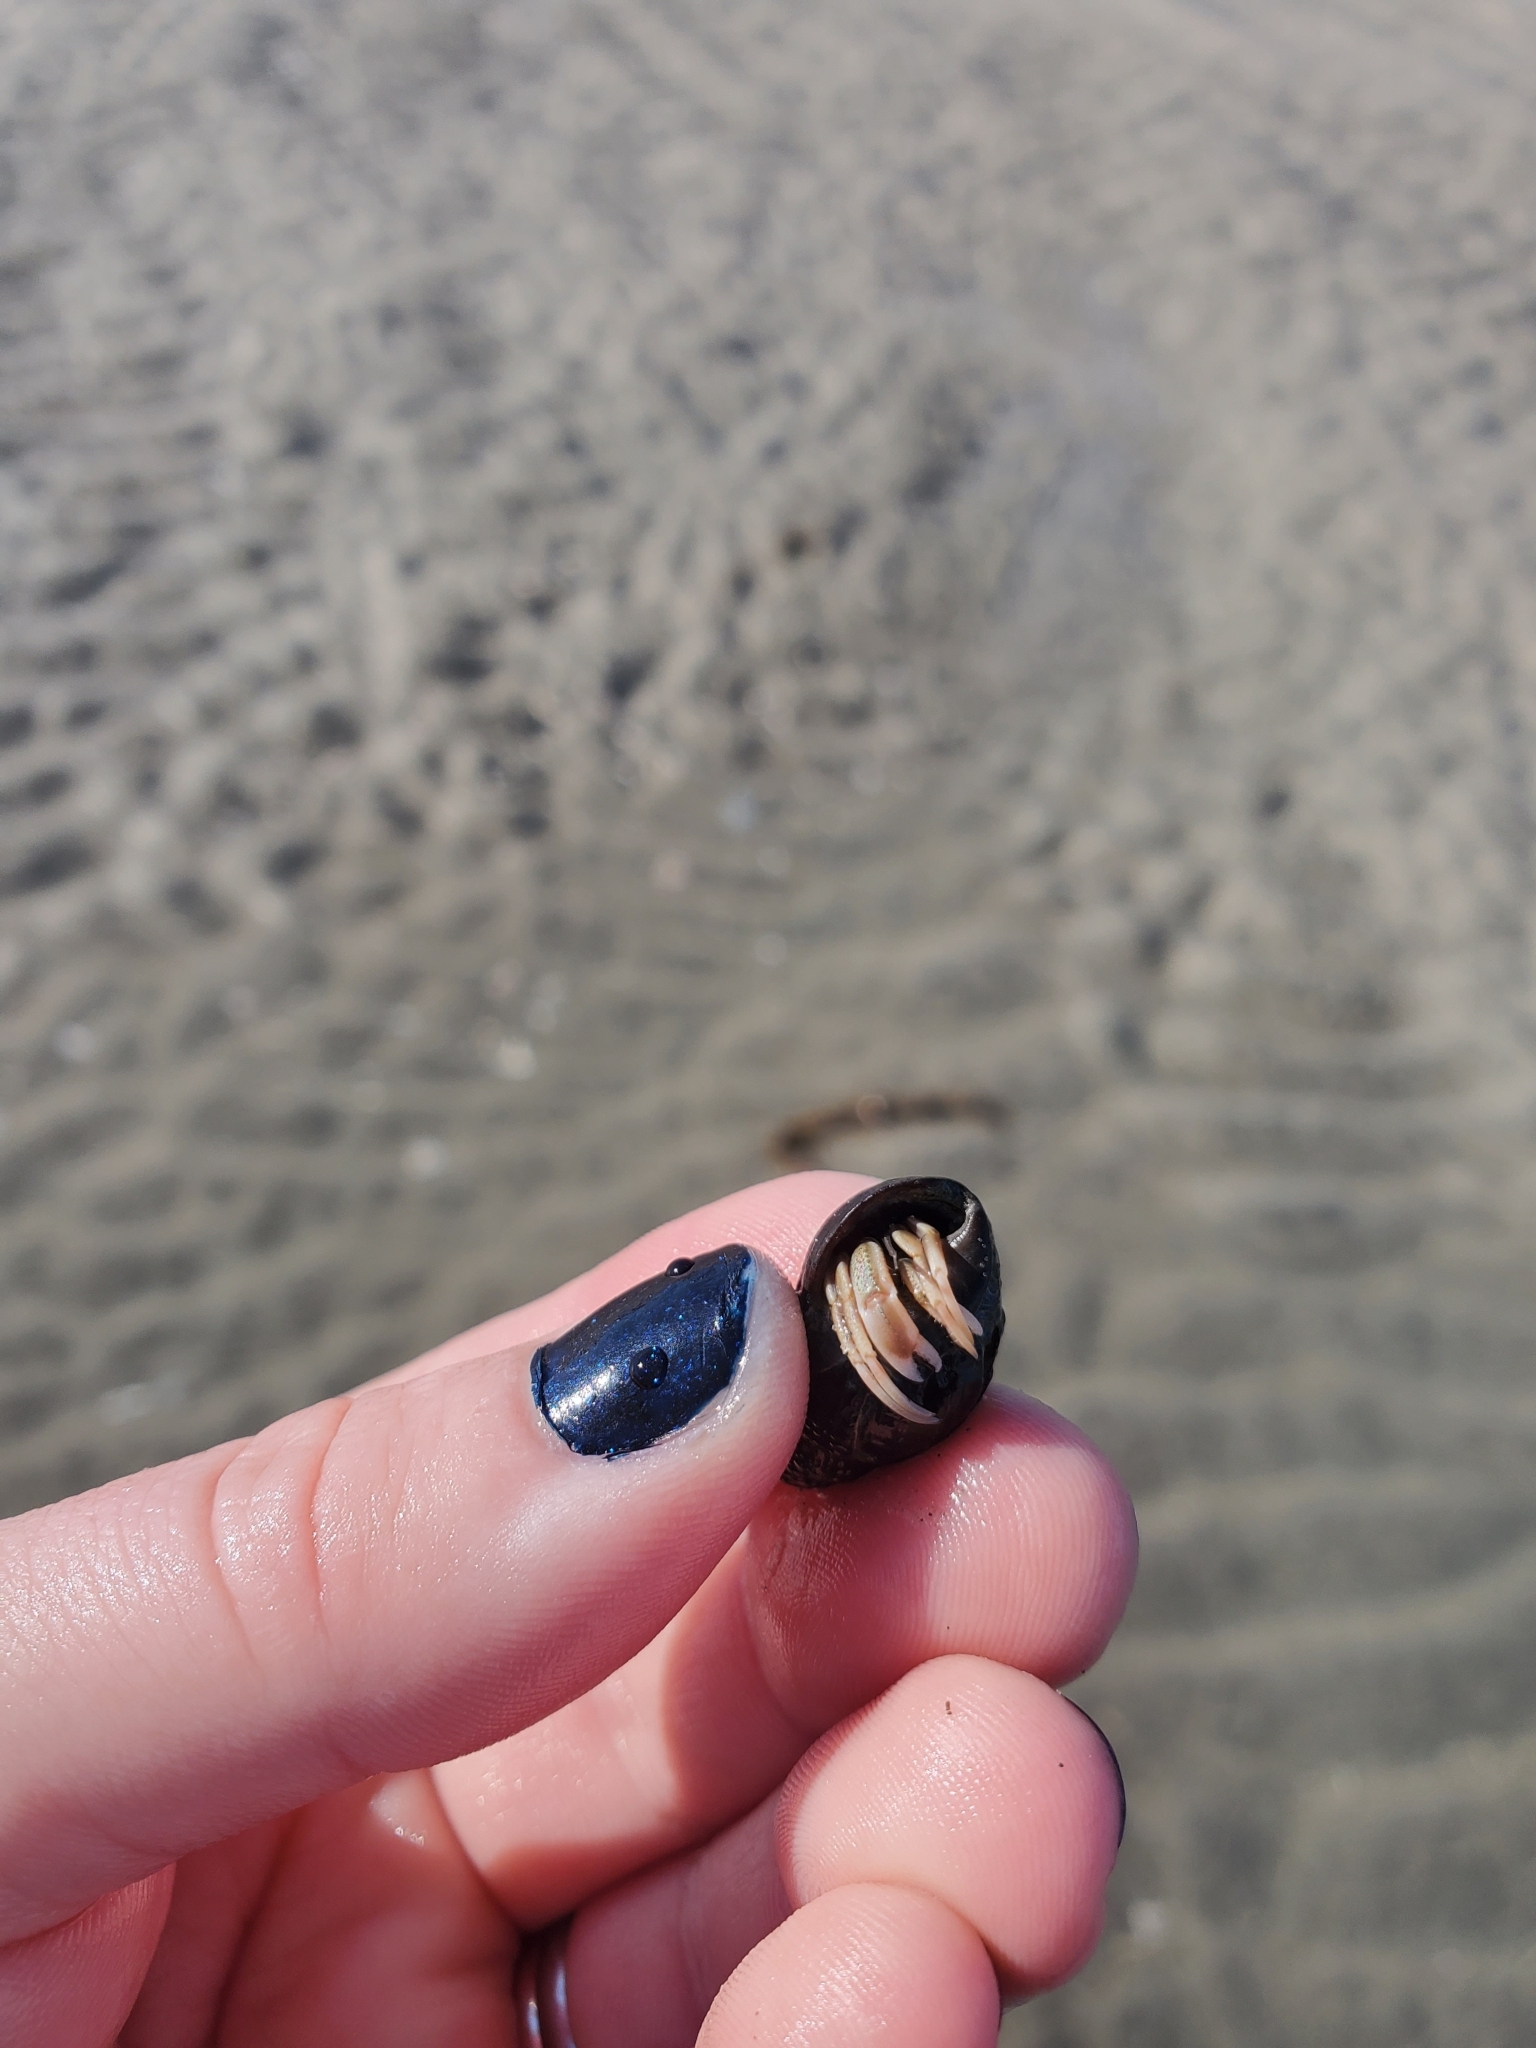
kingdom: Animalia
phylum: Arthropoda
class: Malacostraca
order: Decapoda
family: Paguridae
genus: Pagurus
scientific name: Pagurus longicarpus
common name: Long-armed hermit crab
